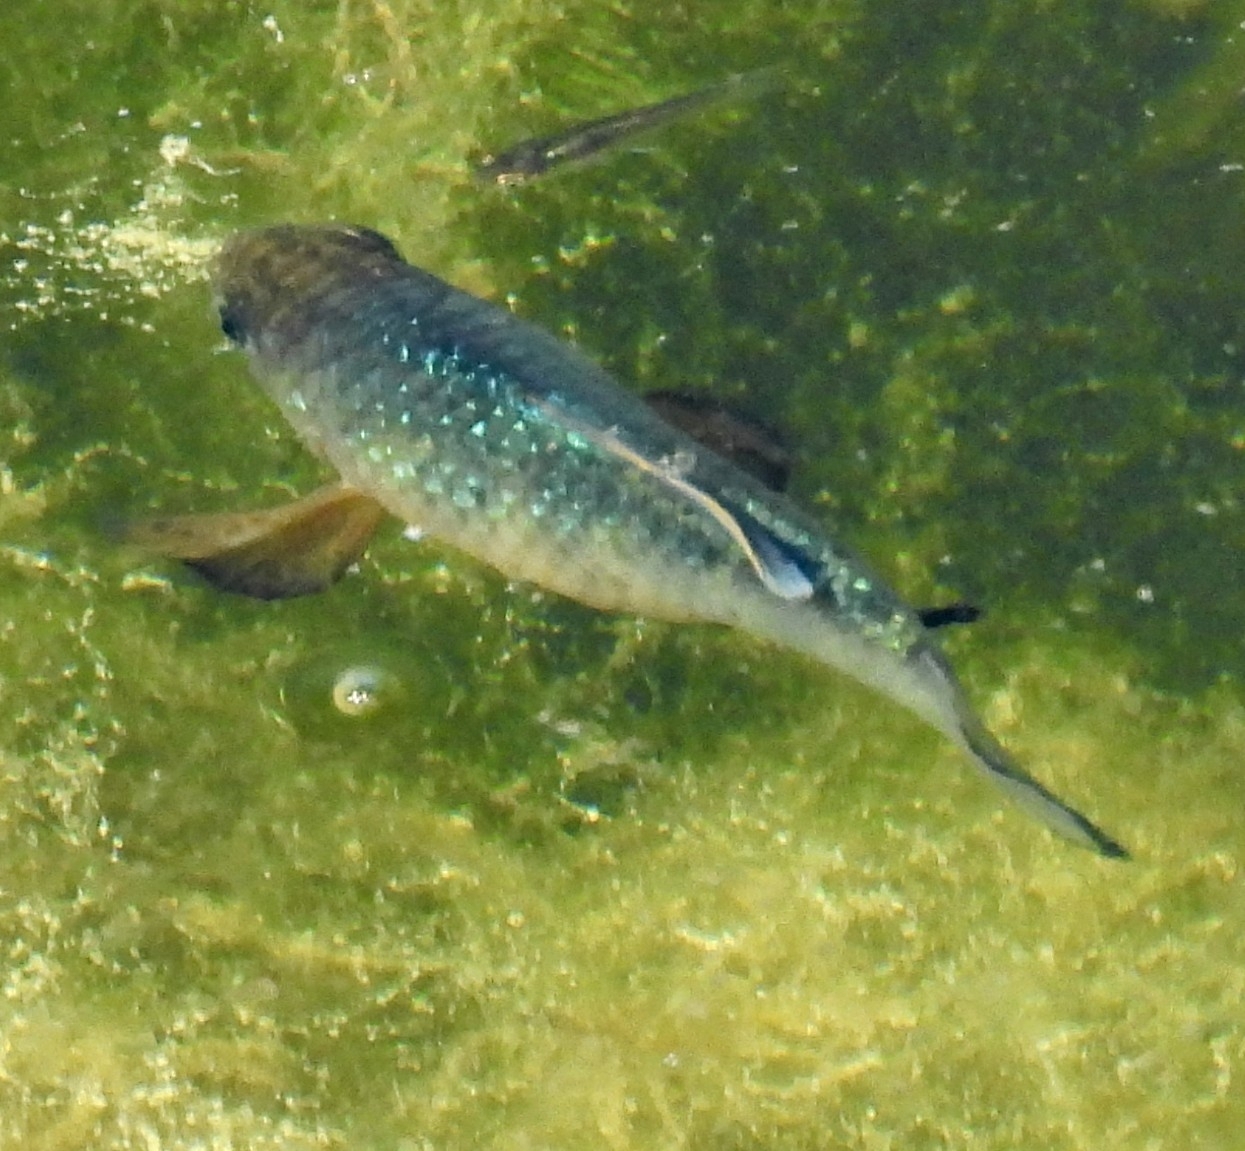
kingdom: Animalia
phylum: Chordata
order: Cyprinodontiformes
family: Cyprinodontidae
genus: Cyprinodon
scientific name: Cyprinodon variegatus
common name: Sheepshead minnow
